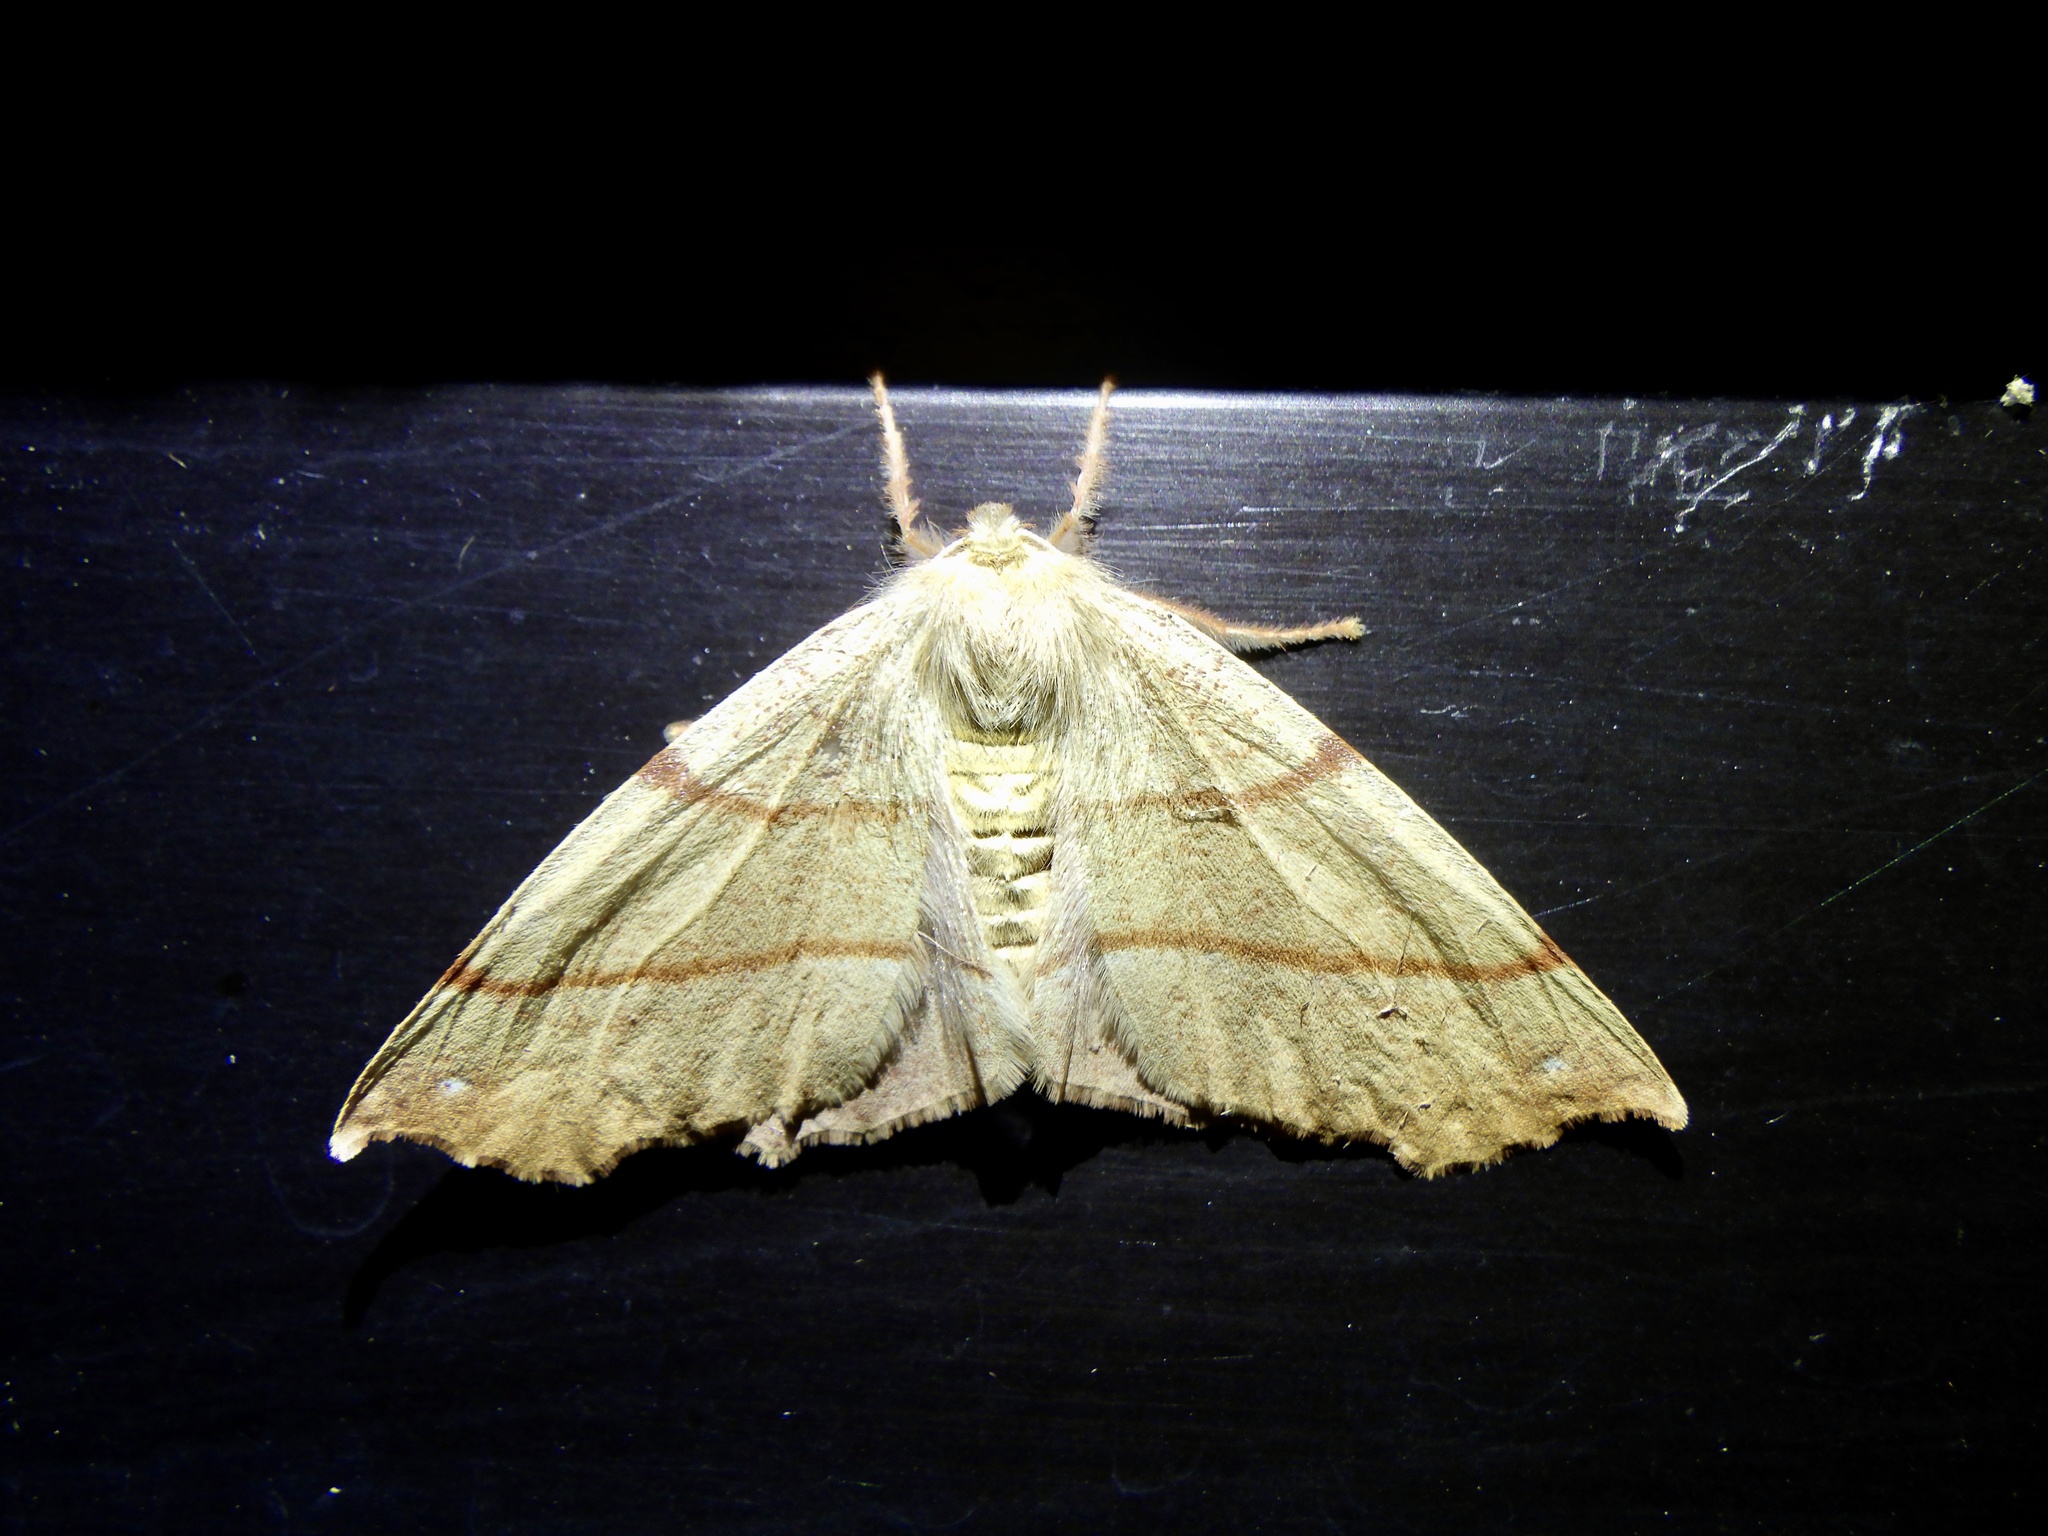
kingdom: Animalia
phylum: Arthropoda
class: Insecta
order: Lepidoptera
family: Geometridae
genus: Colotois
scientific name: Colotois pennaria
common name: Feathered thorn
